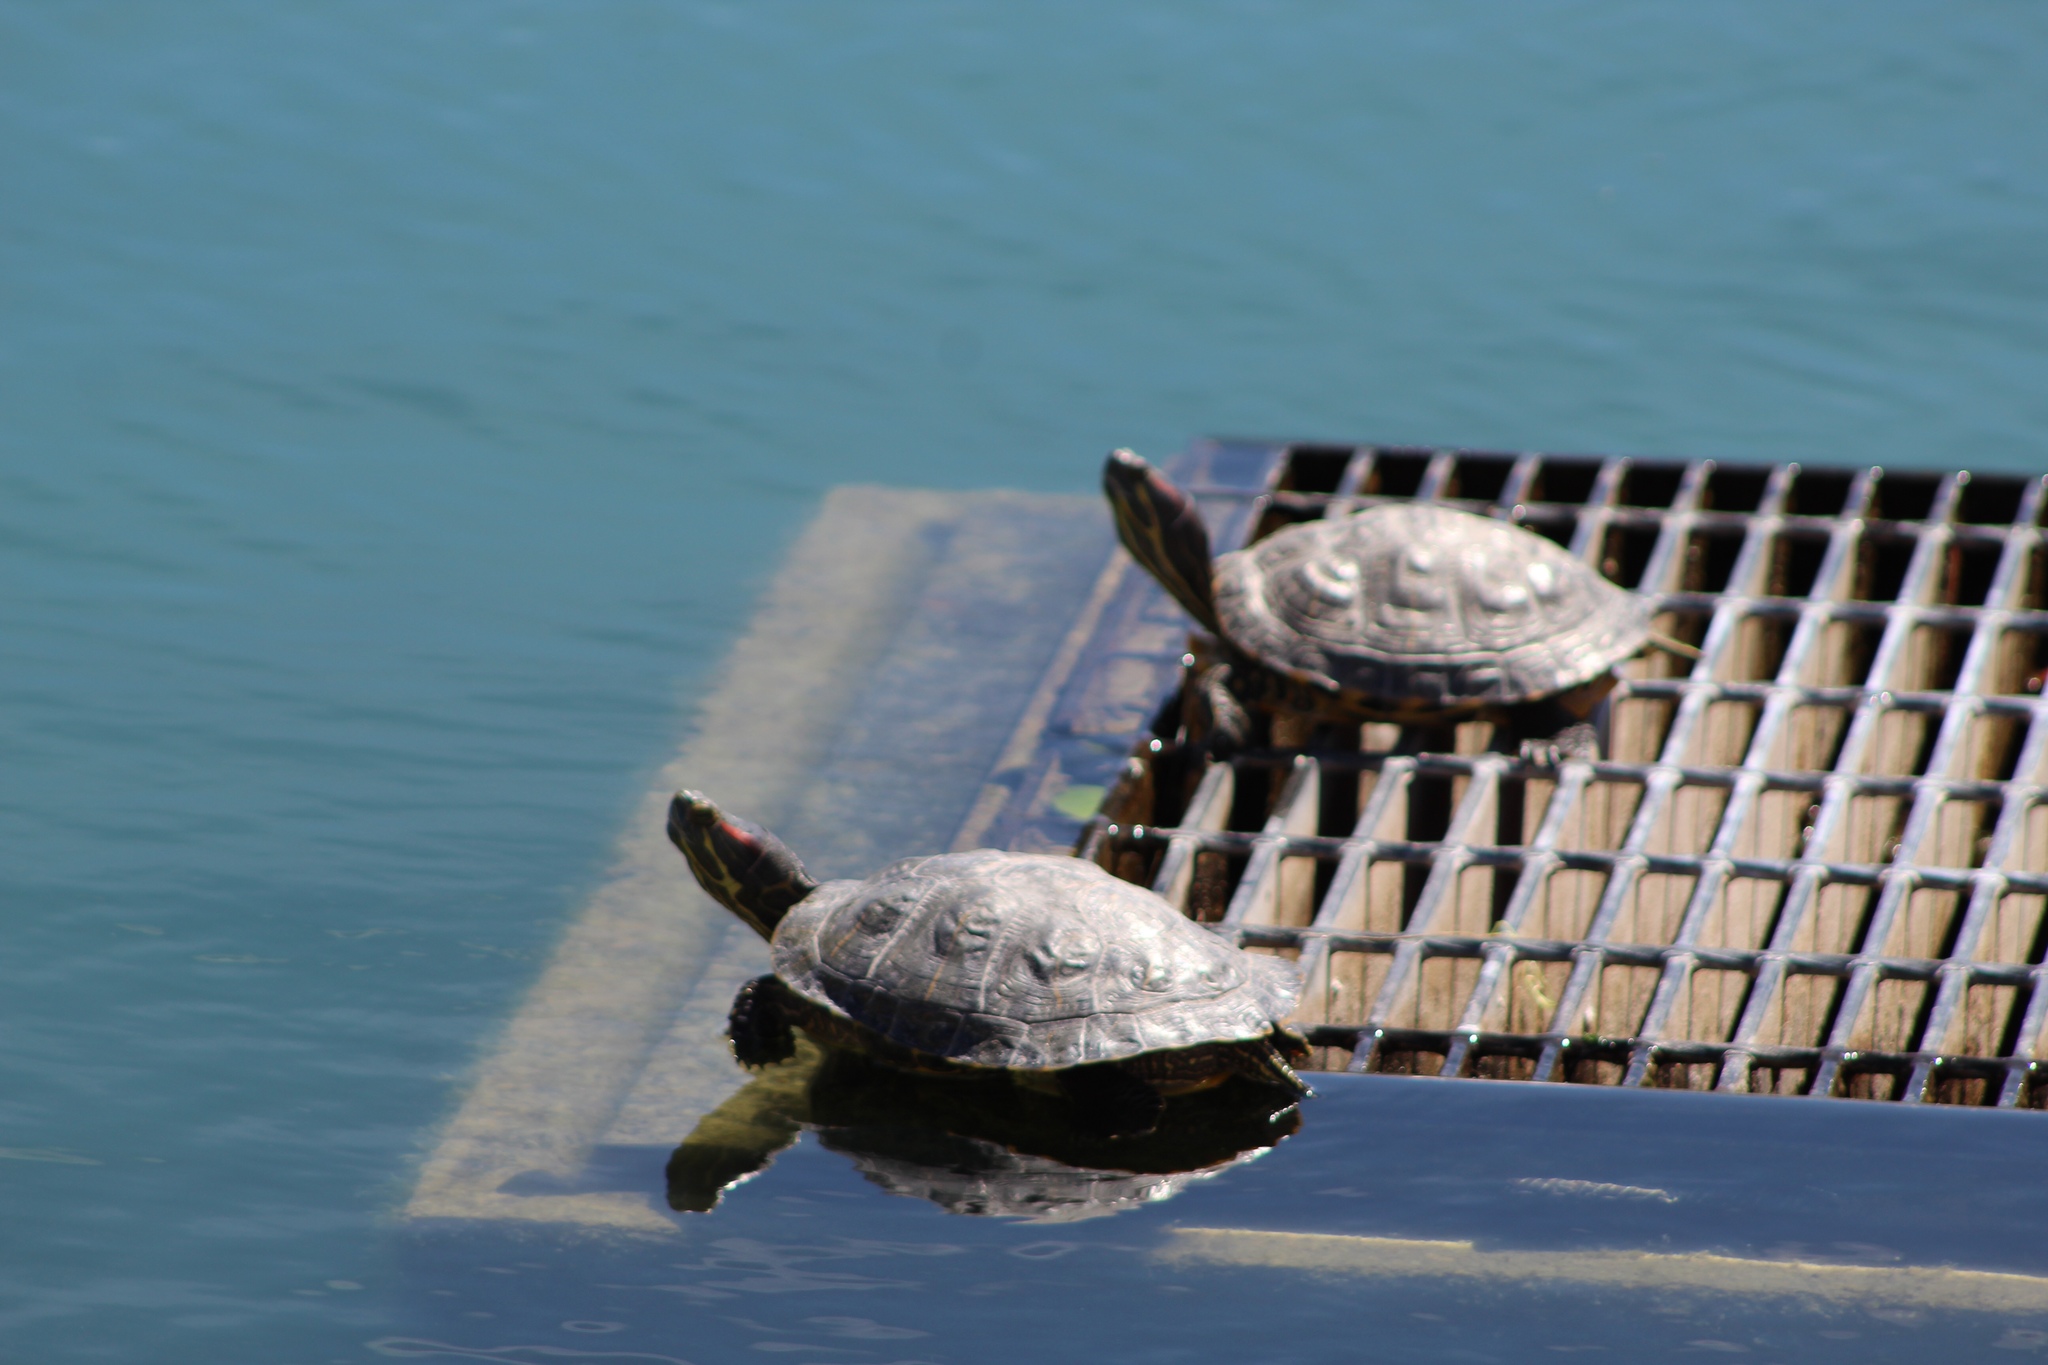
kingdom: Animalia
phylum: Chordata
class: Testudines
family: Emydidae
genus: Trachemys
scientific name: Trachemys scripta
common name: Slider
